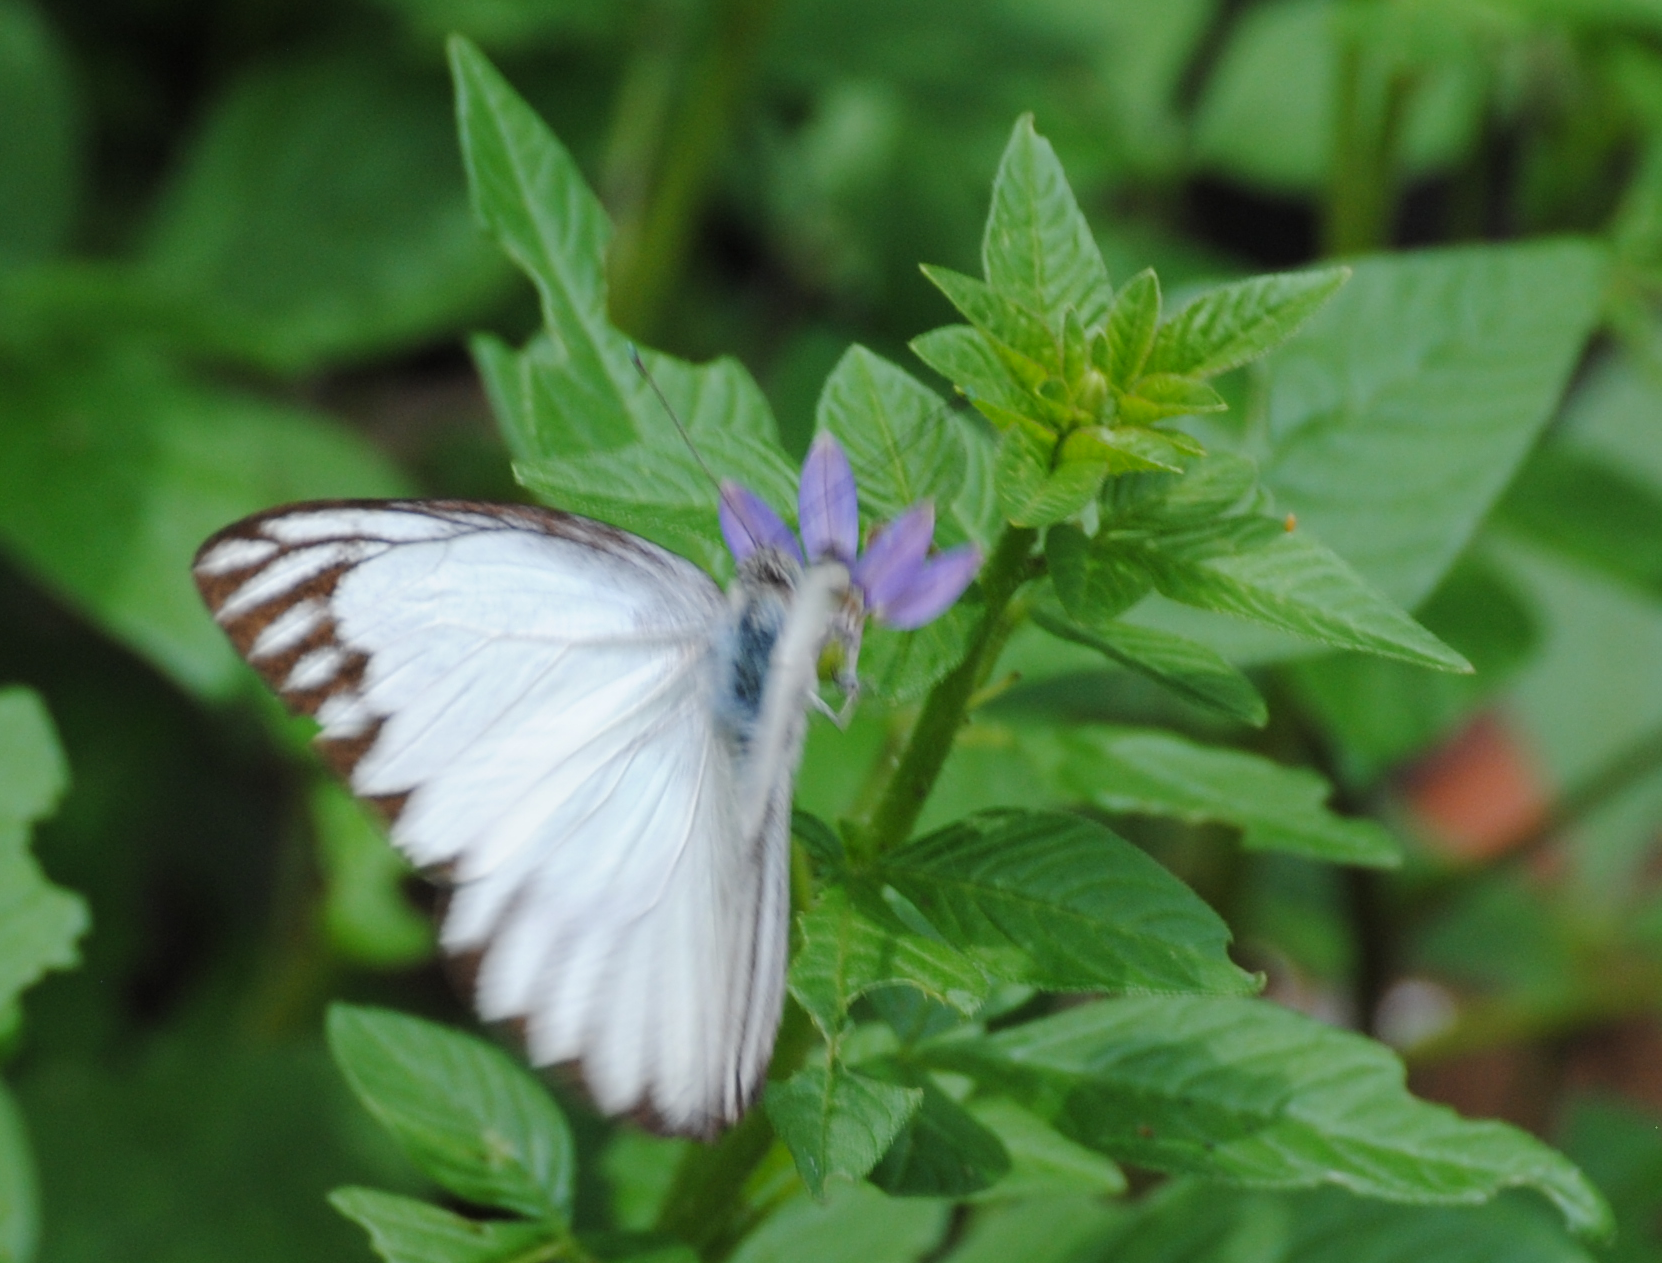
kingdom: Animalia
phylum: Arthropoda
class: Insecta
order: Lepidoptera
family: Pieridae
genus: Appias
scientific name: Appias libythea
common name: Striped albatross
